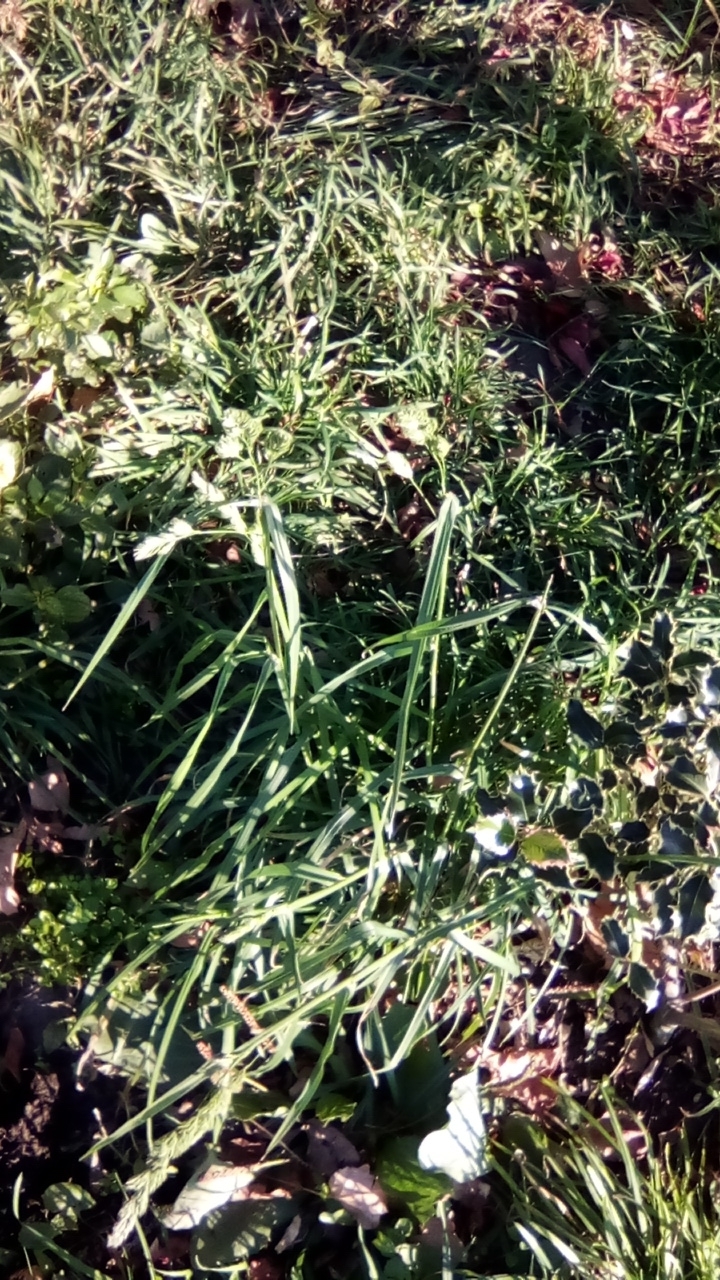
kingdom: Plantae
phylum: Tracheophyta
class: Liliopsida
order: Poales
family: Poaceae
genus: Dactylis
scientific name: Dactylis glomerata
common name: Orchardgrass
